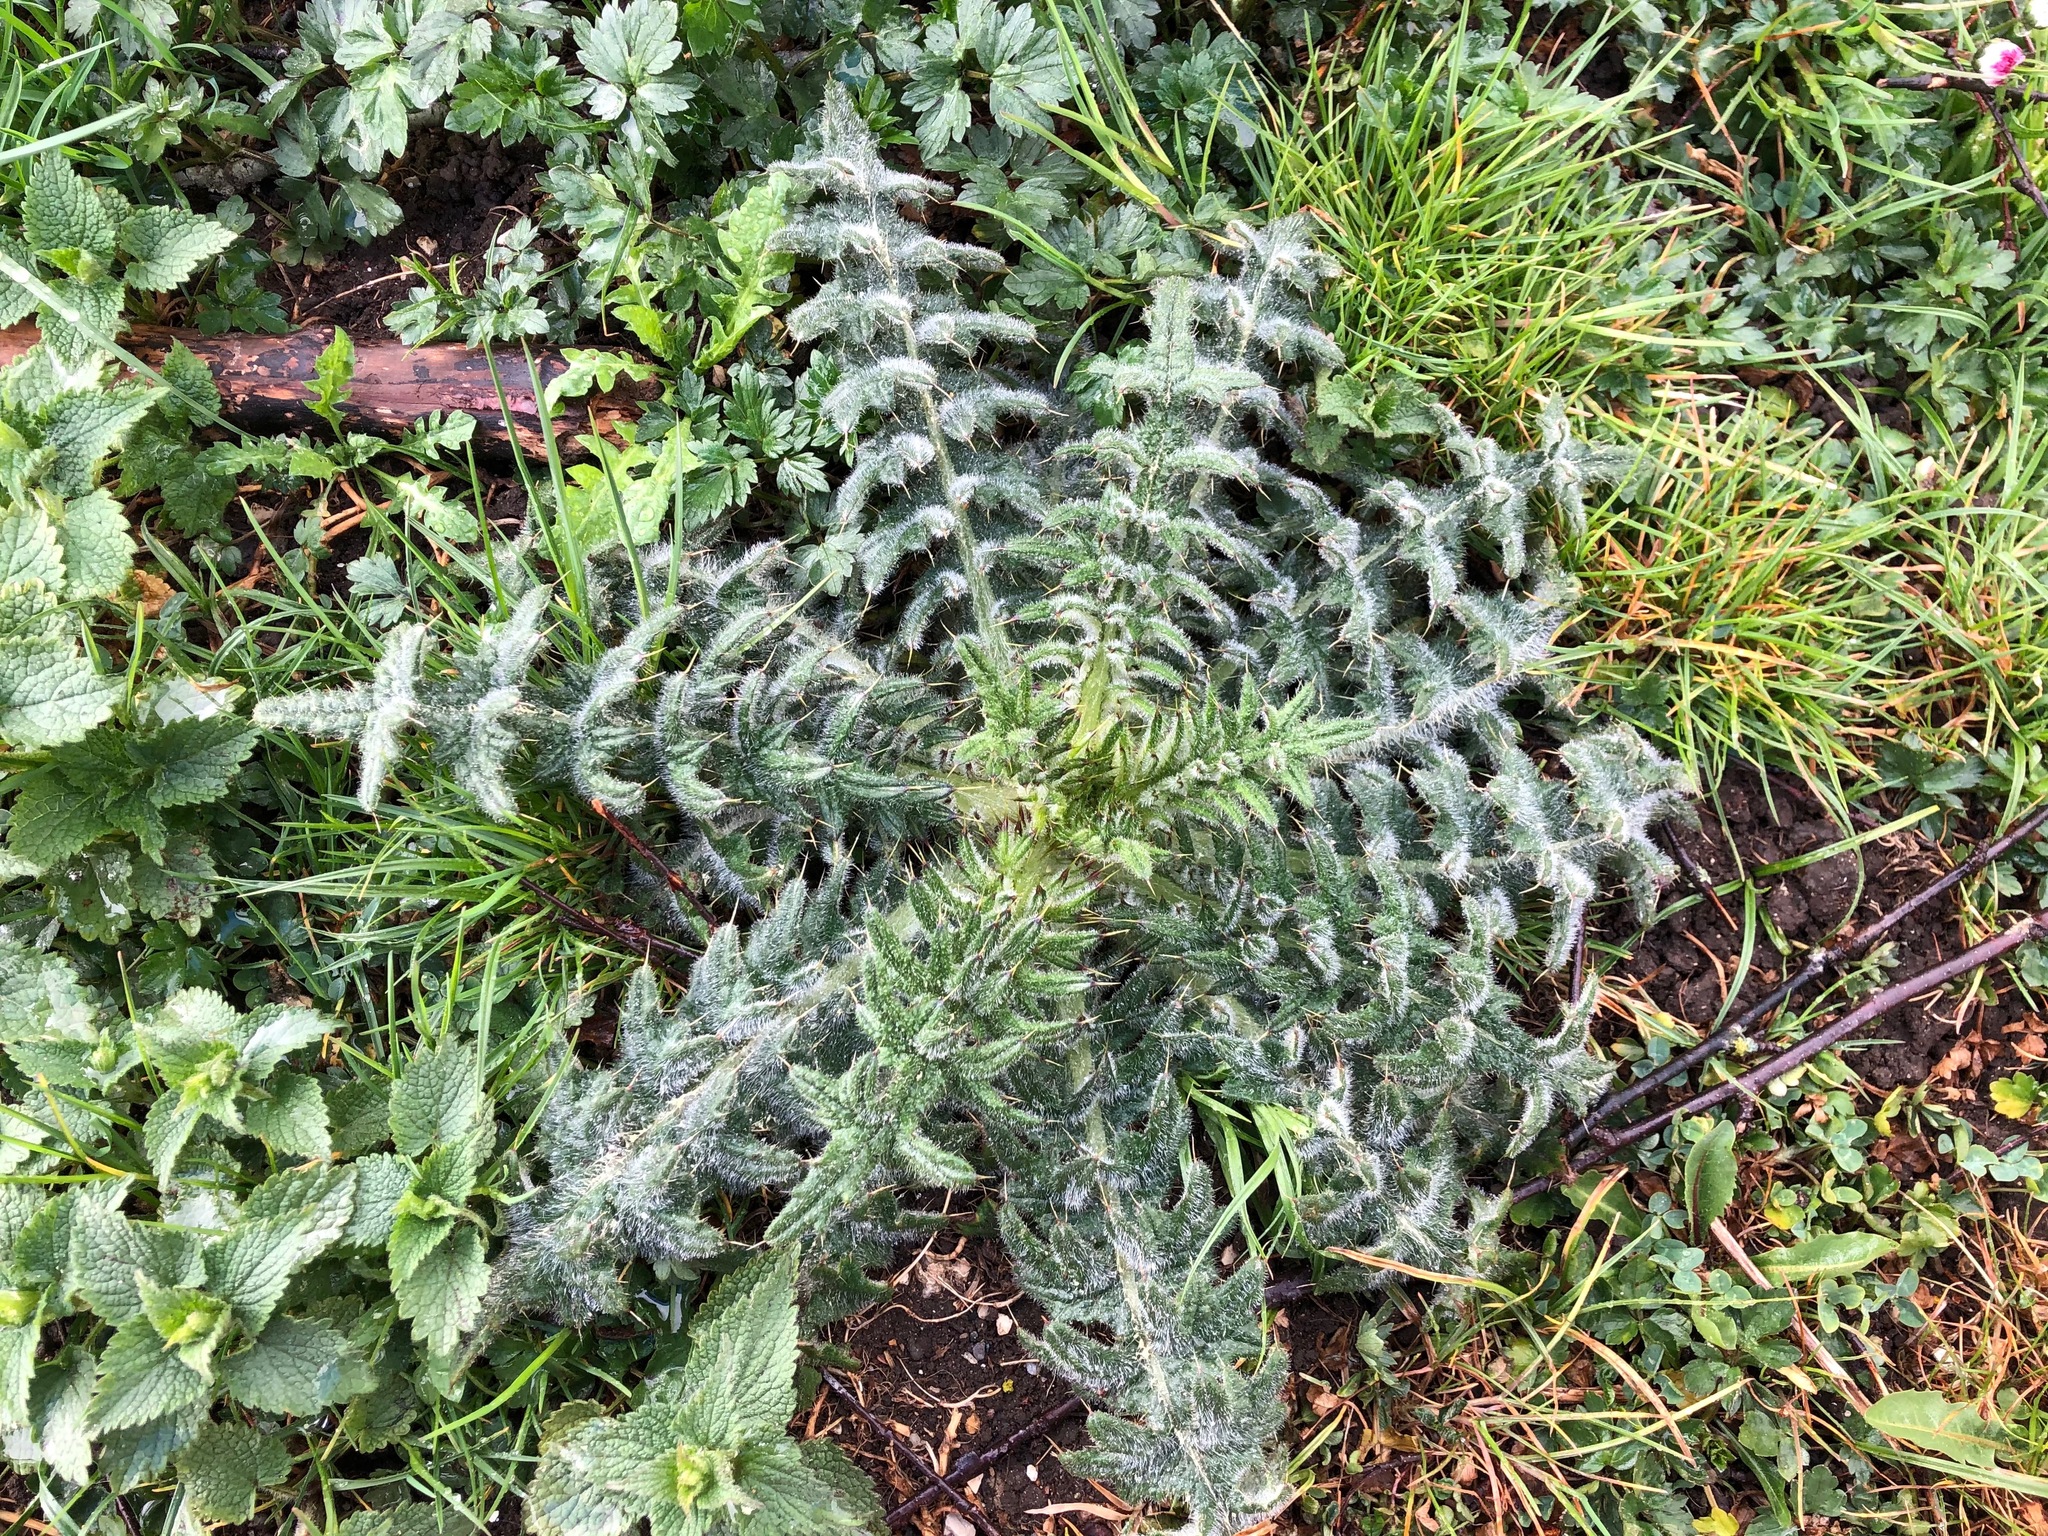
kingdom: Plantae
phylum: Tracheophyta
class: Magnoliopsida
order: Asterales
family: Asteraceae
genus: Cirsium
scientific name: Cirsium vulgare
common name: Bull thistle
